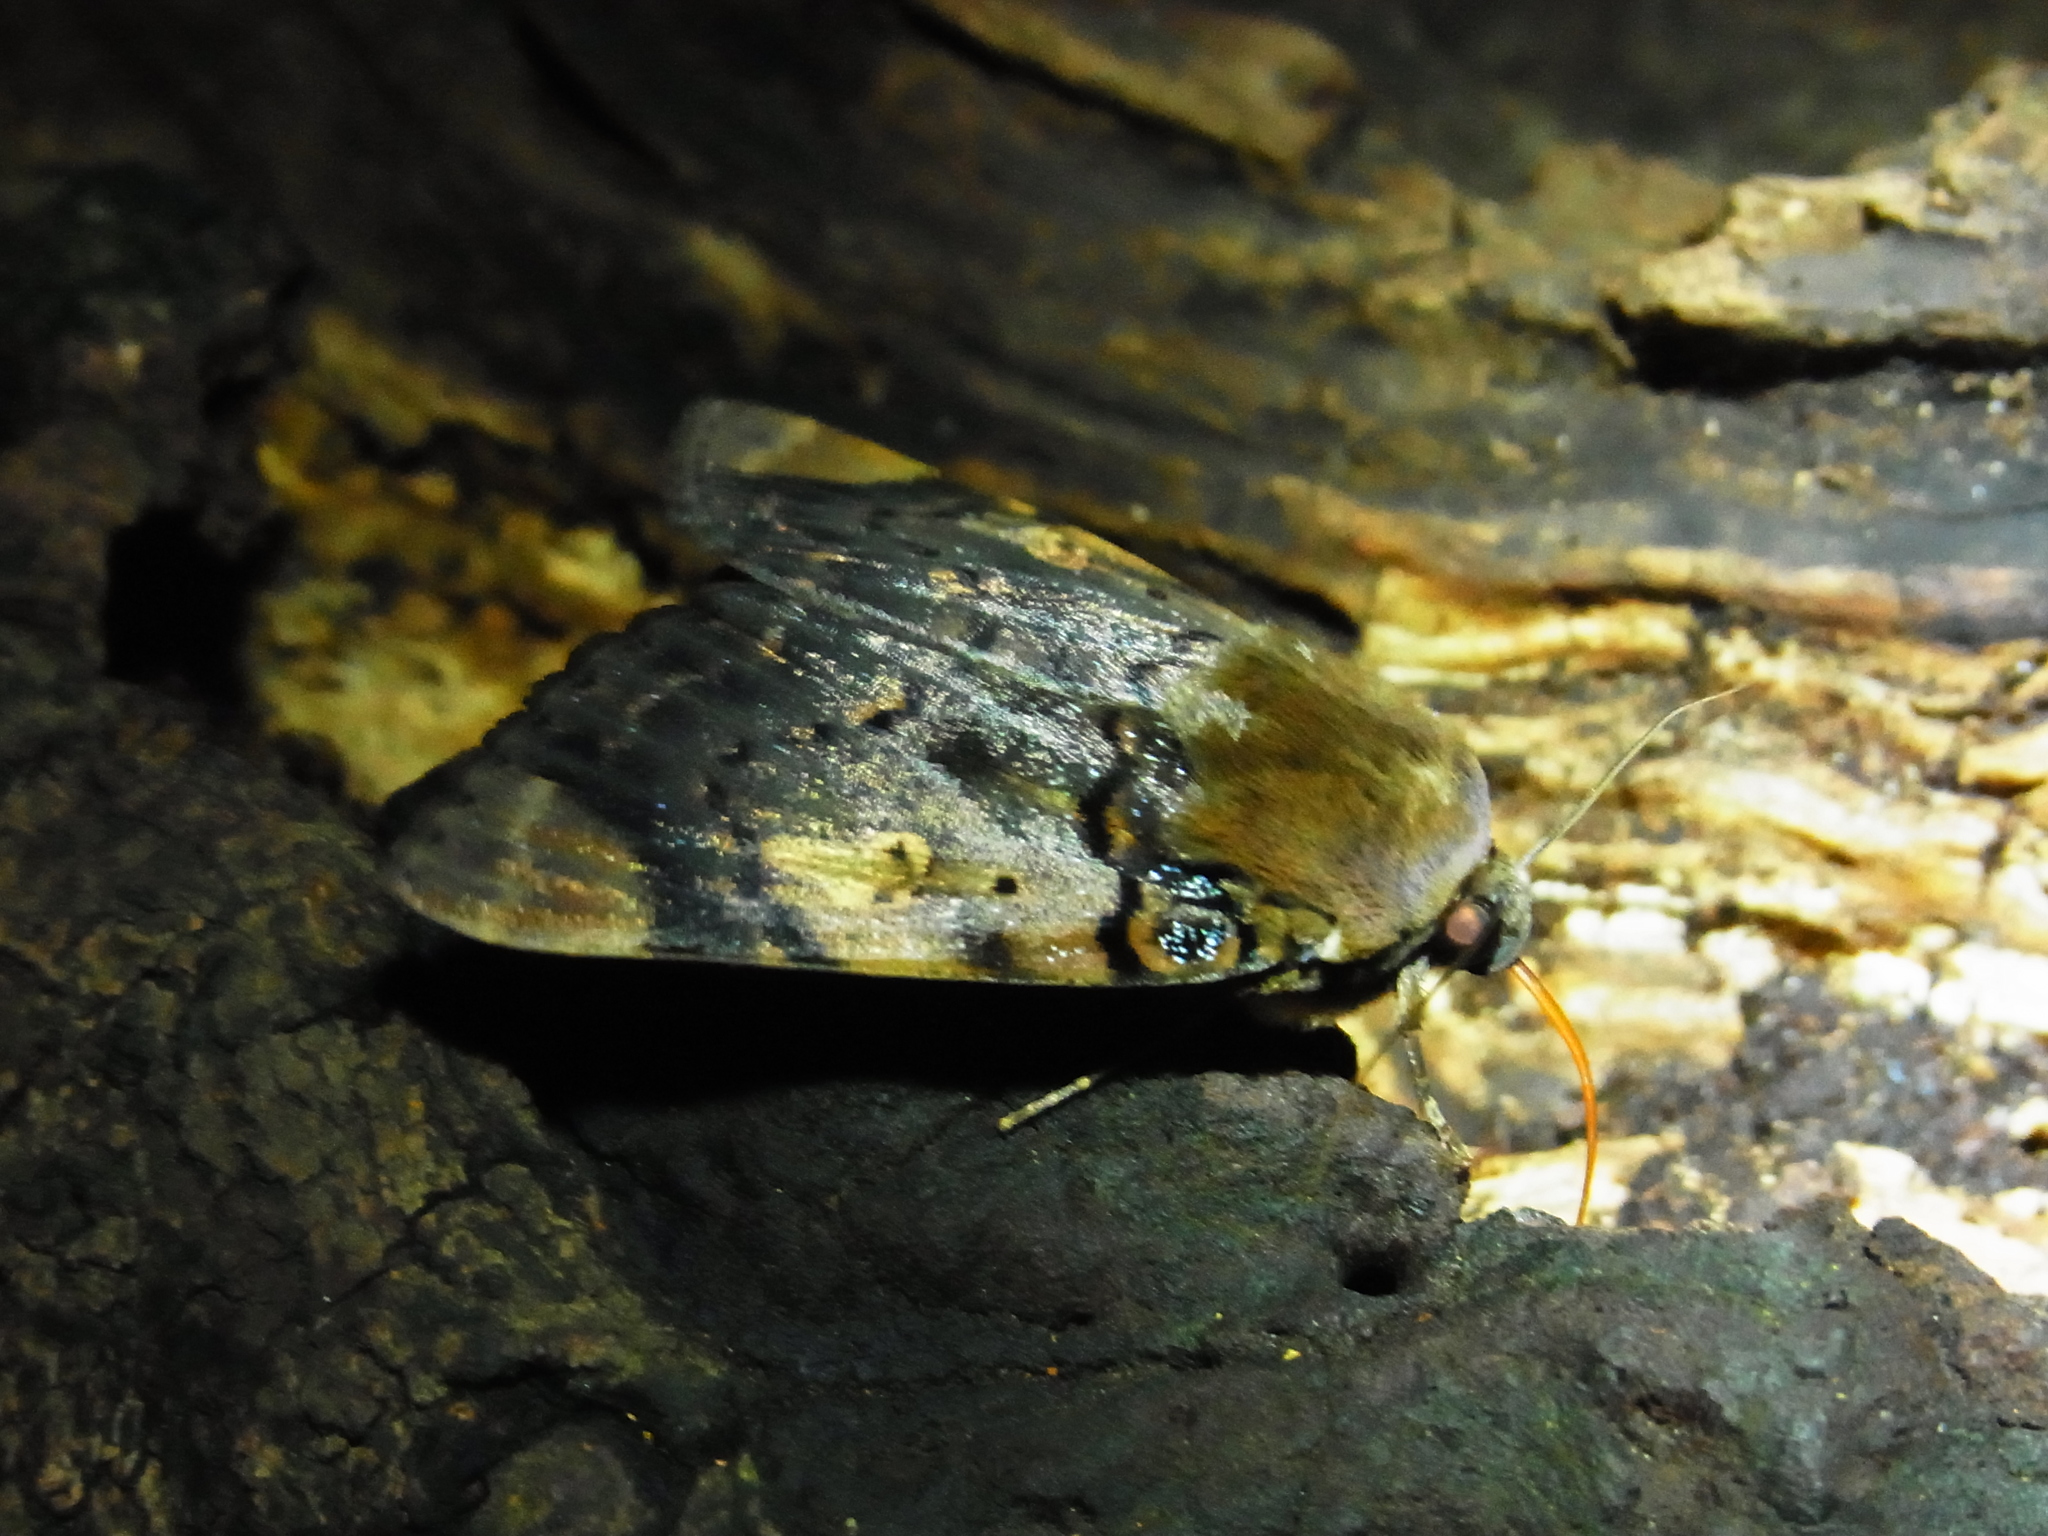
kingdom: Animalia
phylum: Arthropoda
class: Insecta
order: Lepidoptera
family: Erebidae
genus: Arcte
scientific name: Arcte coerula
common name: Ramie moth
